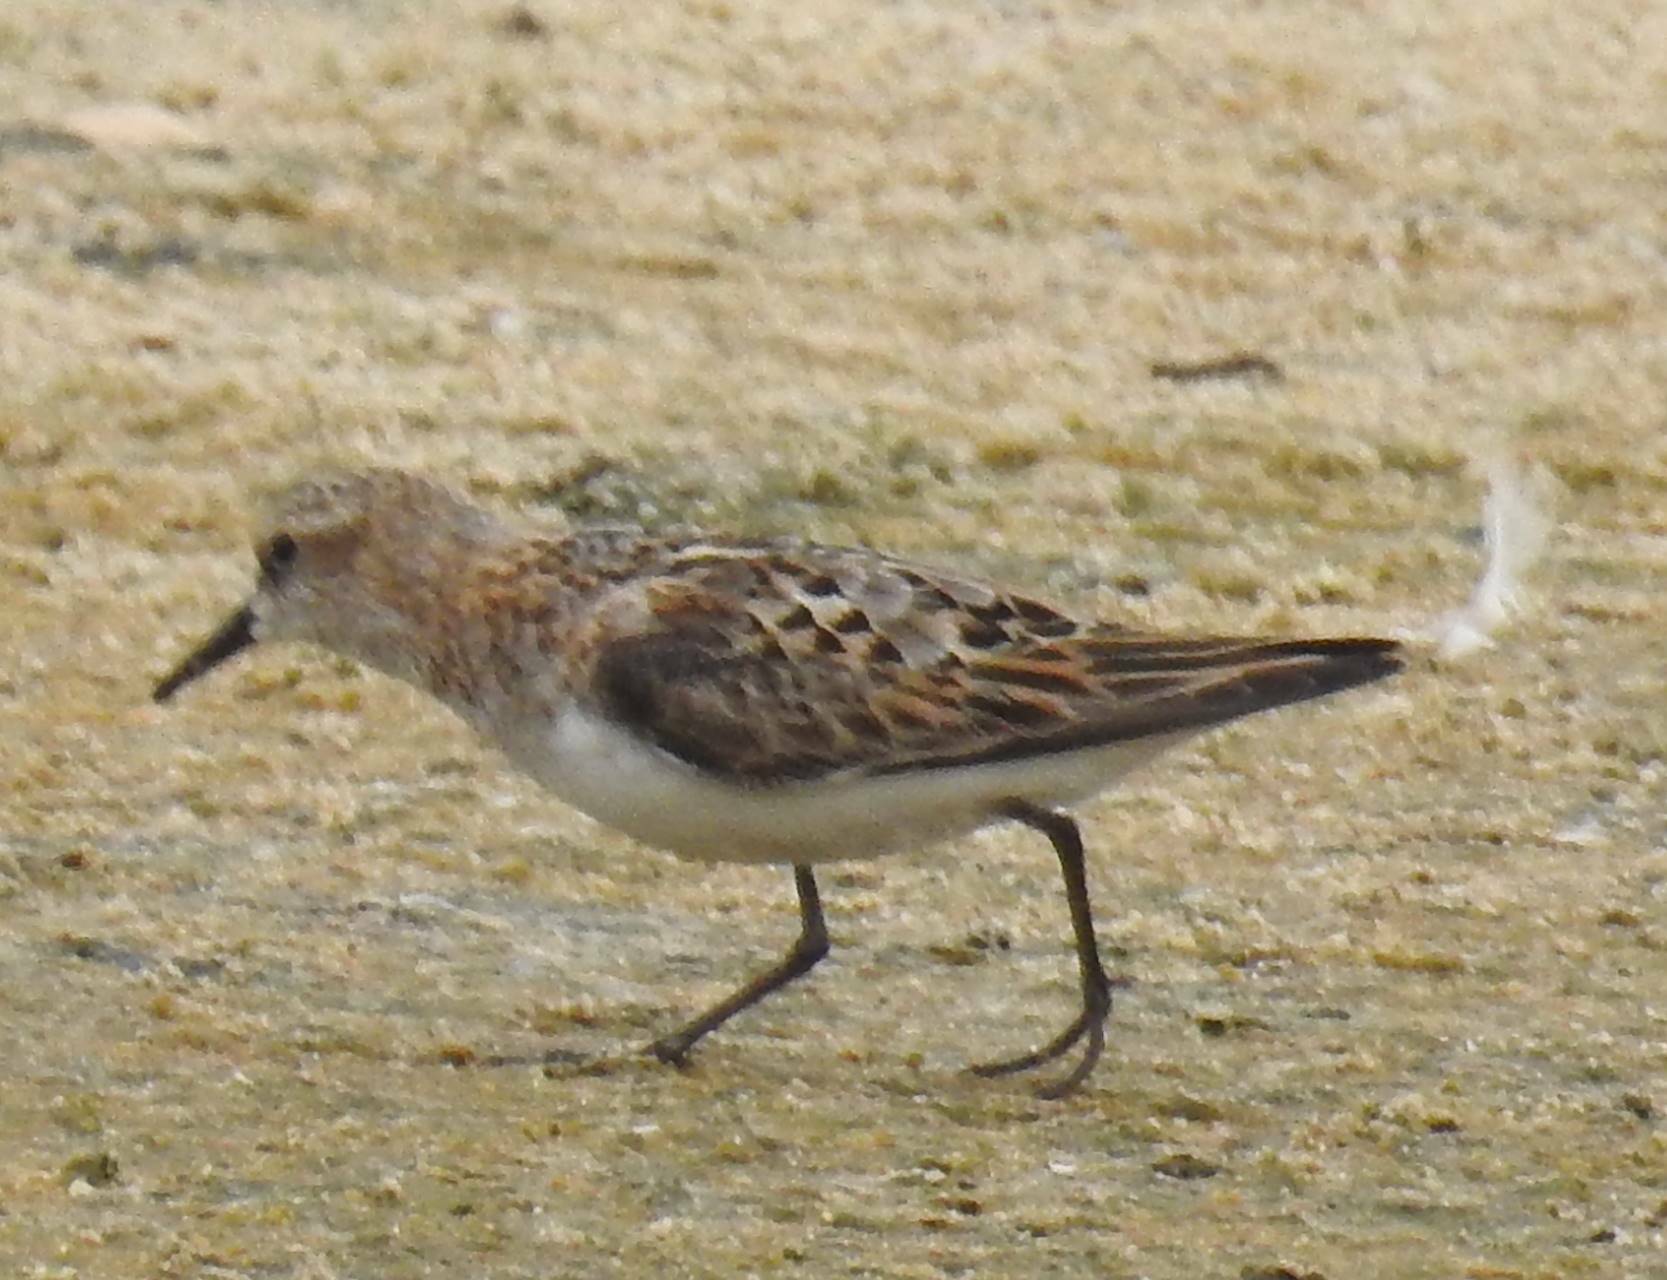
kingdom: Animalia
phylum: Chordata
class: Aves
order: Charadriiformes
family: Scolopacidae
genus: Calidris
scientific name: Calidris minuta
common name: Little stint
